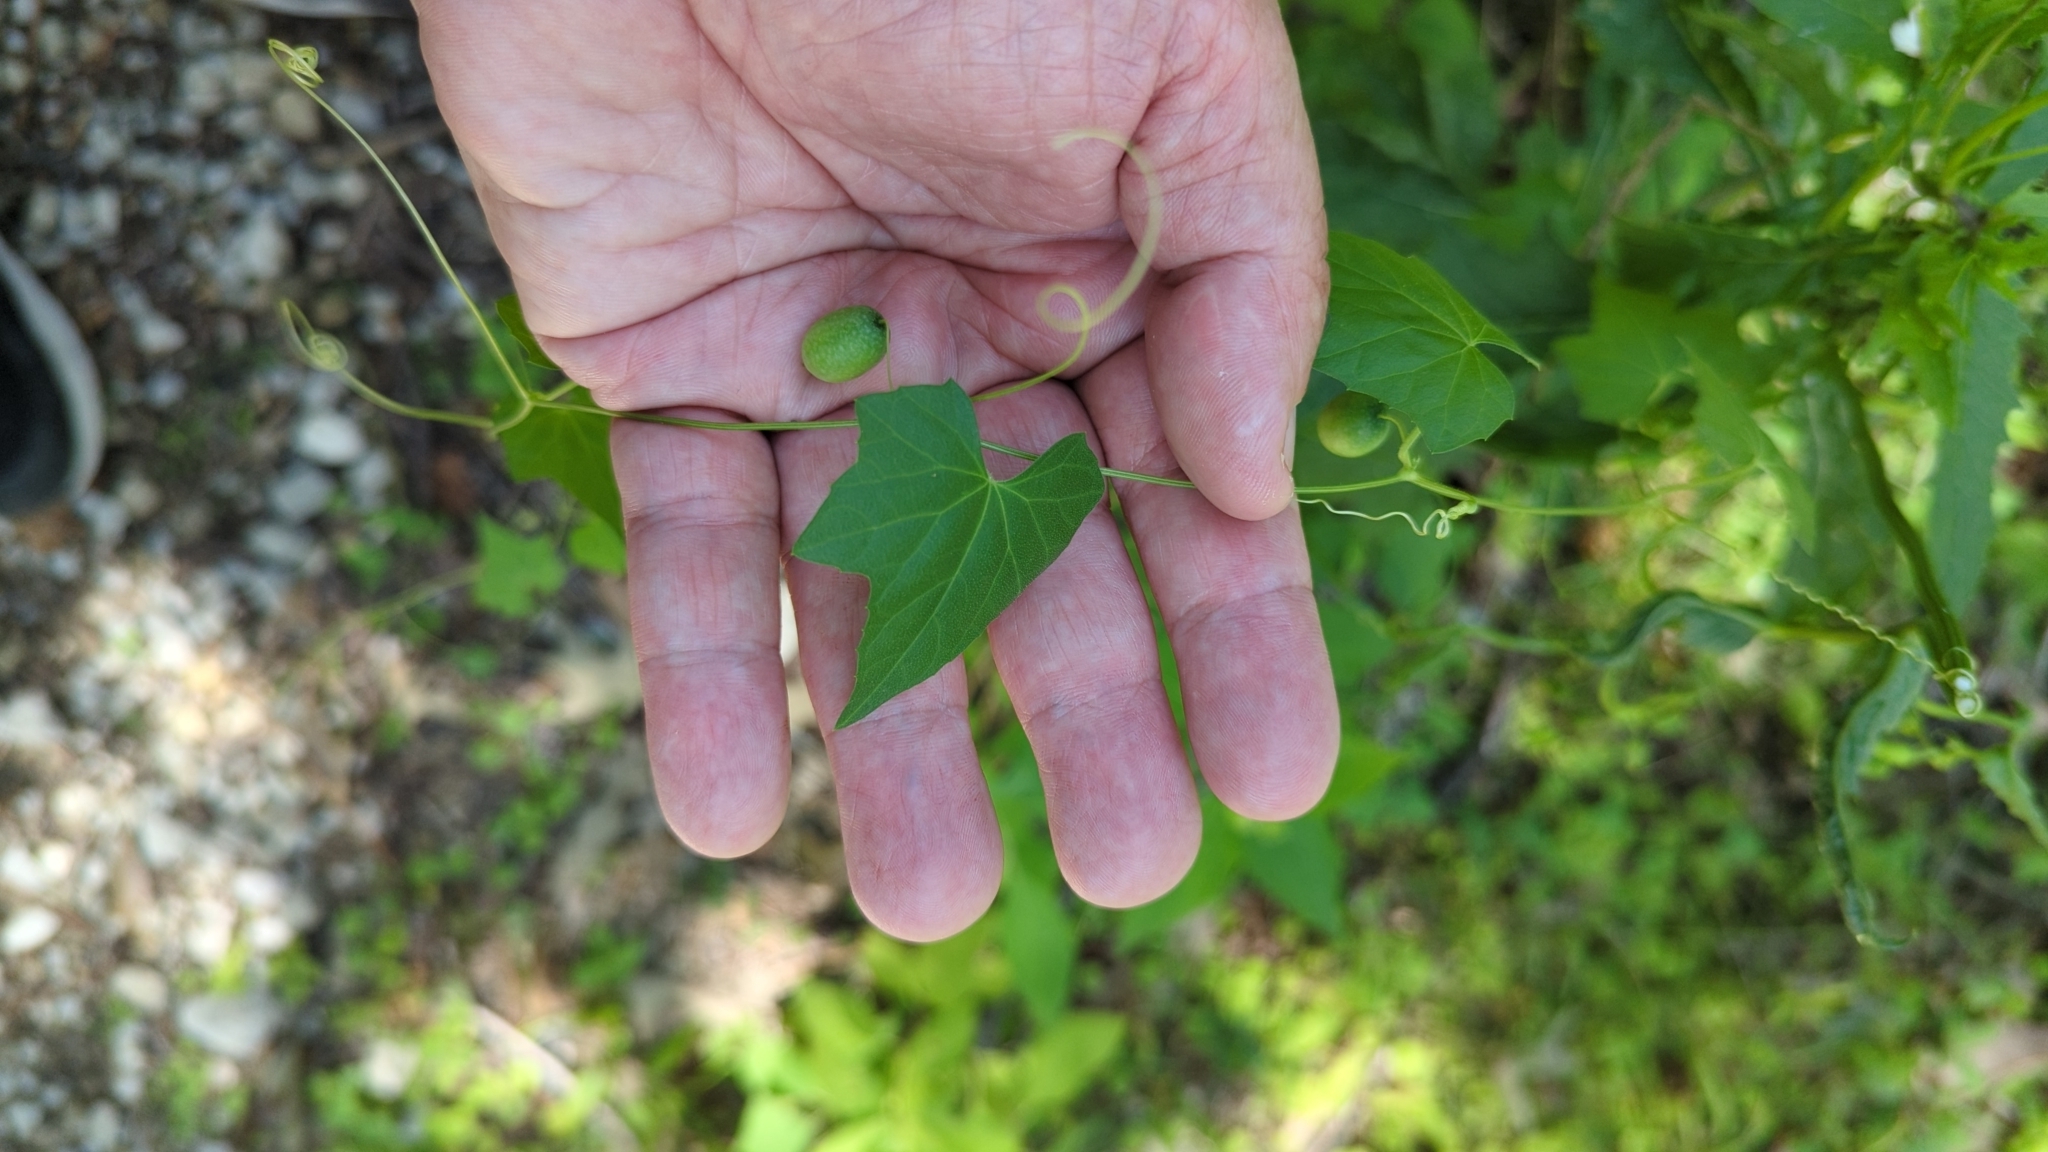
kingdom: Plantae
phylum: Tracheophyta
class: Magnoliopsida
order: Cucurbitales
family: Cucurbitaceae
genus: Melothria
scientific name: Melothria pendula
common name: Creeping-cucumber
